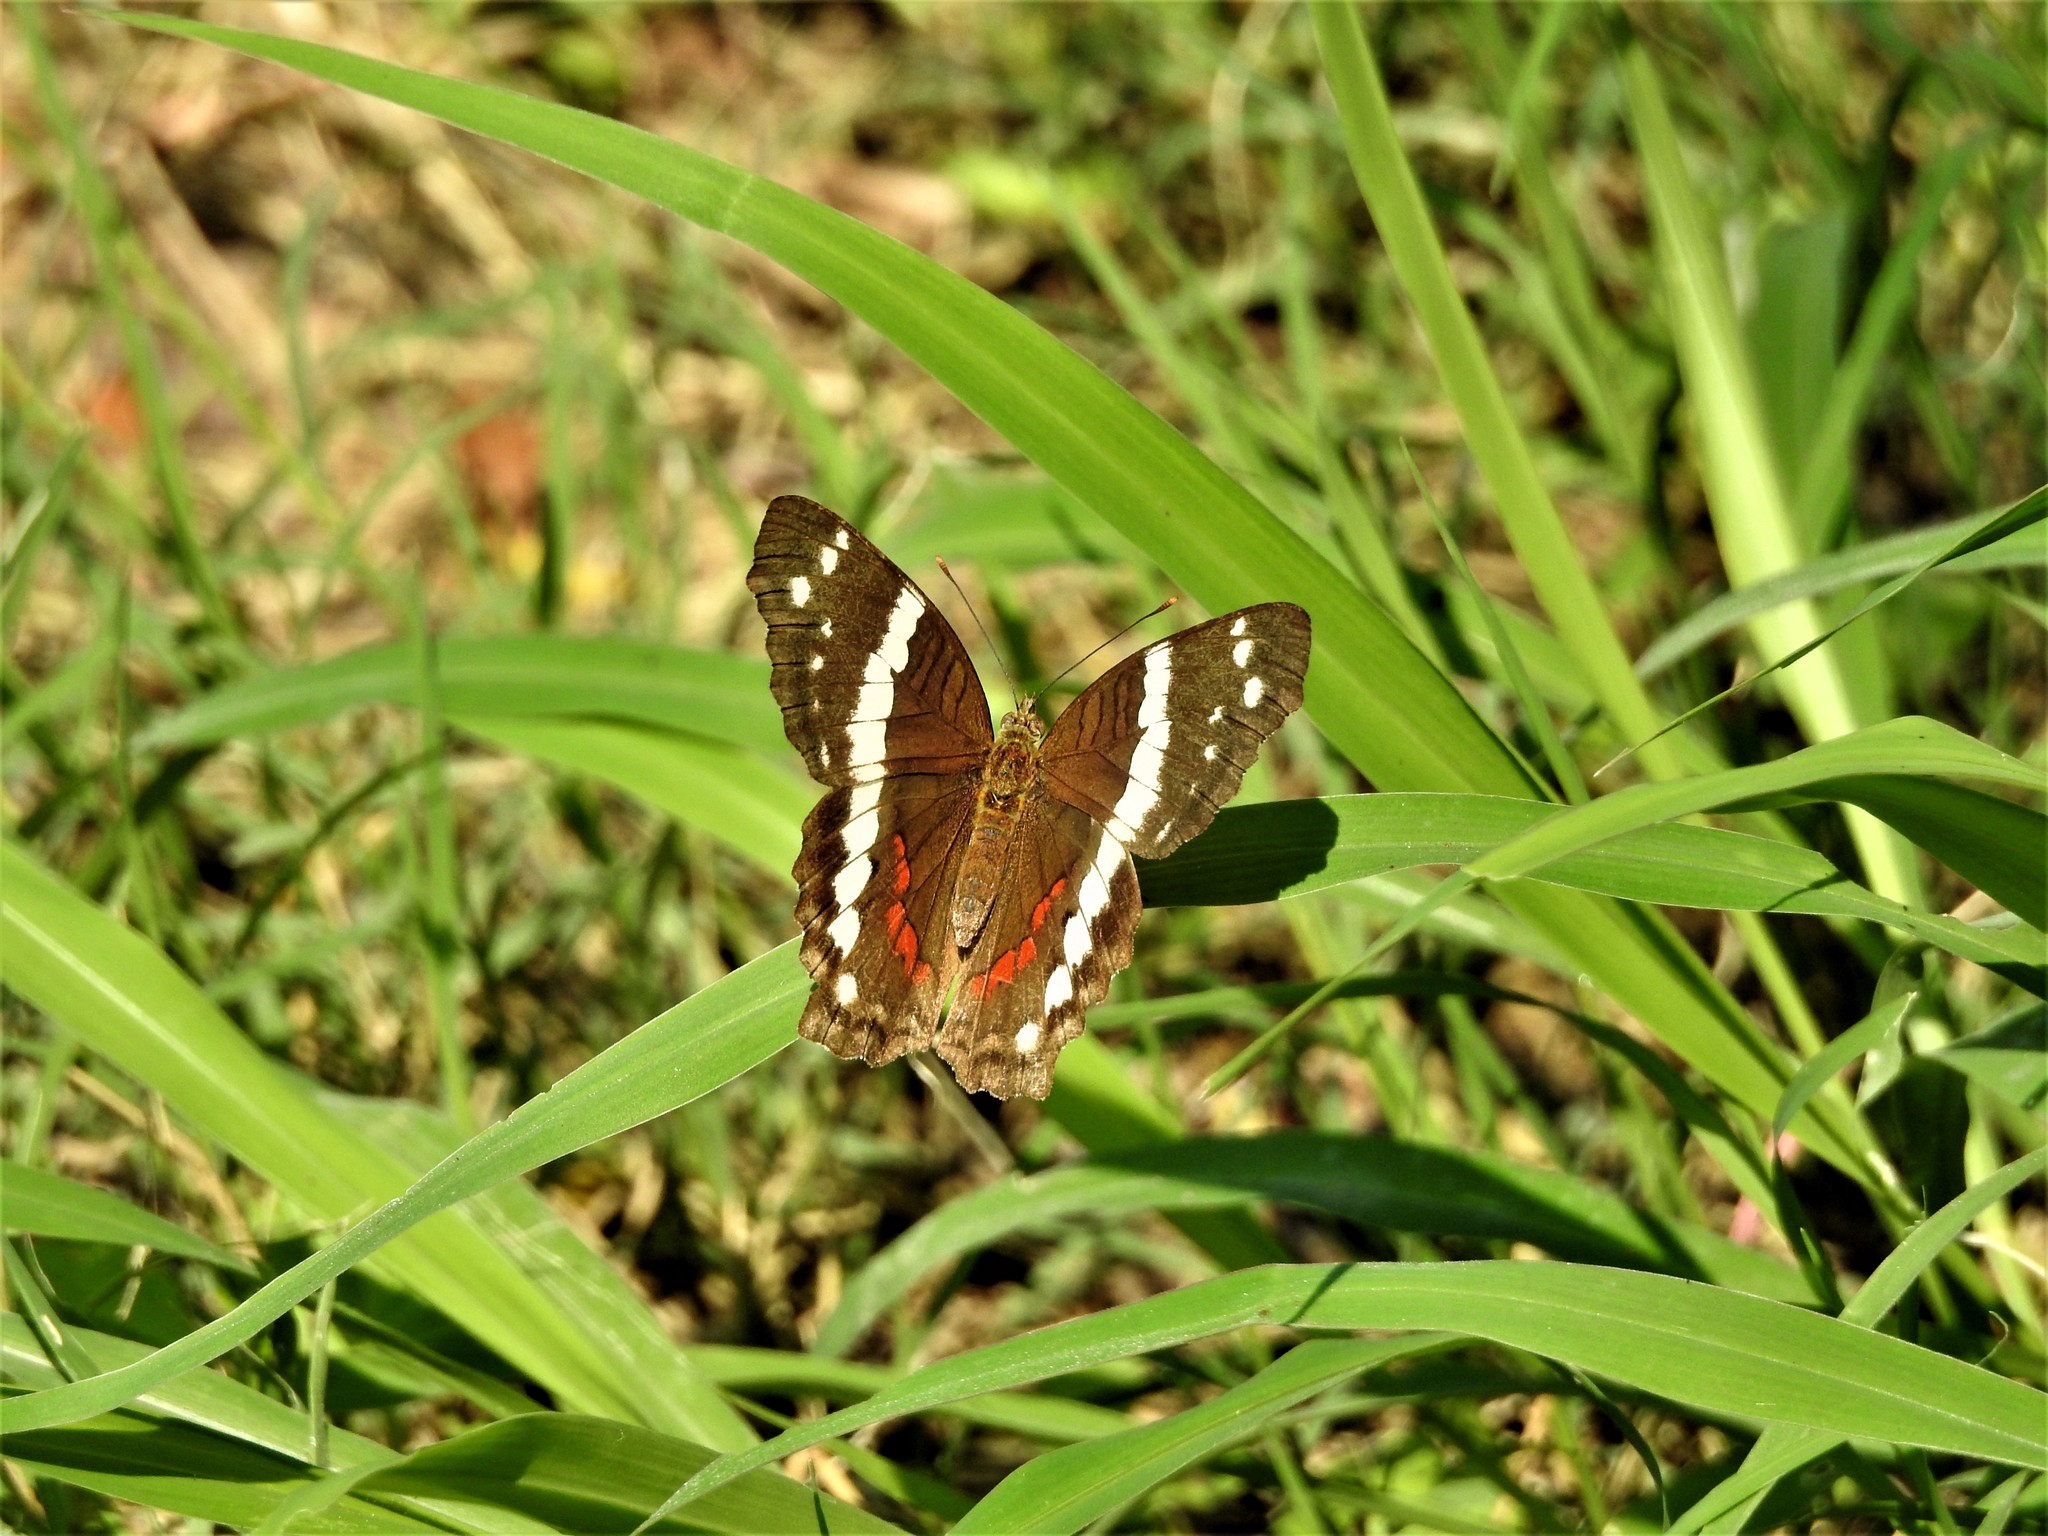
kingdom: Animalia
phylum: Arthropoda
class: Insecta
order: Lepidoptera
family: Nymphalidae
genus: Anartia
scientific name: Anartia fatima
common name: Banded peacock
